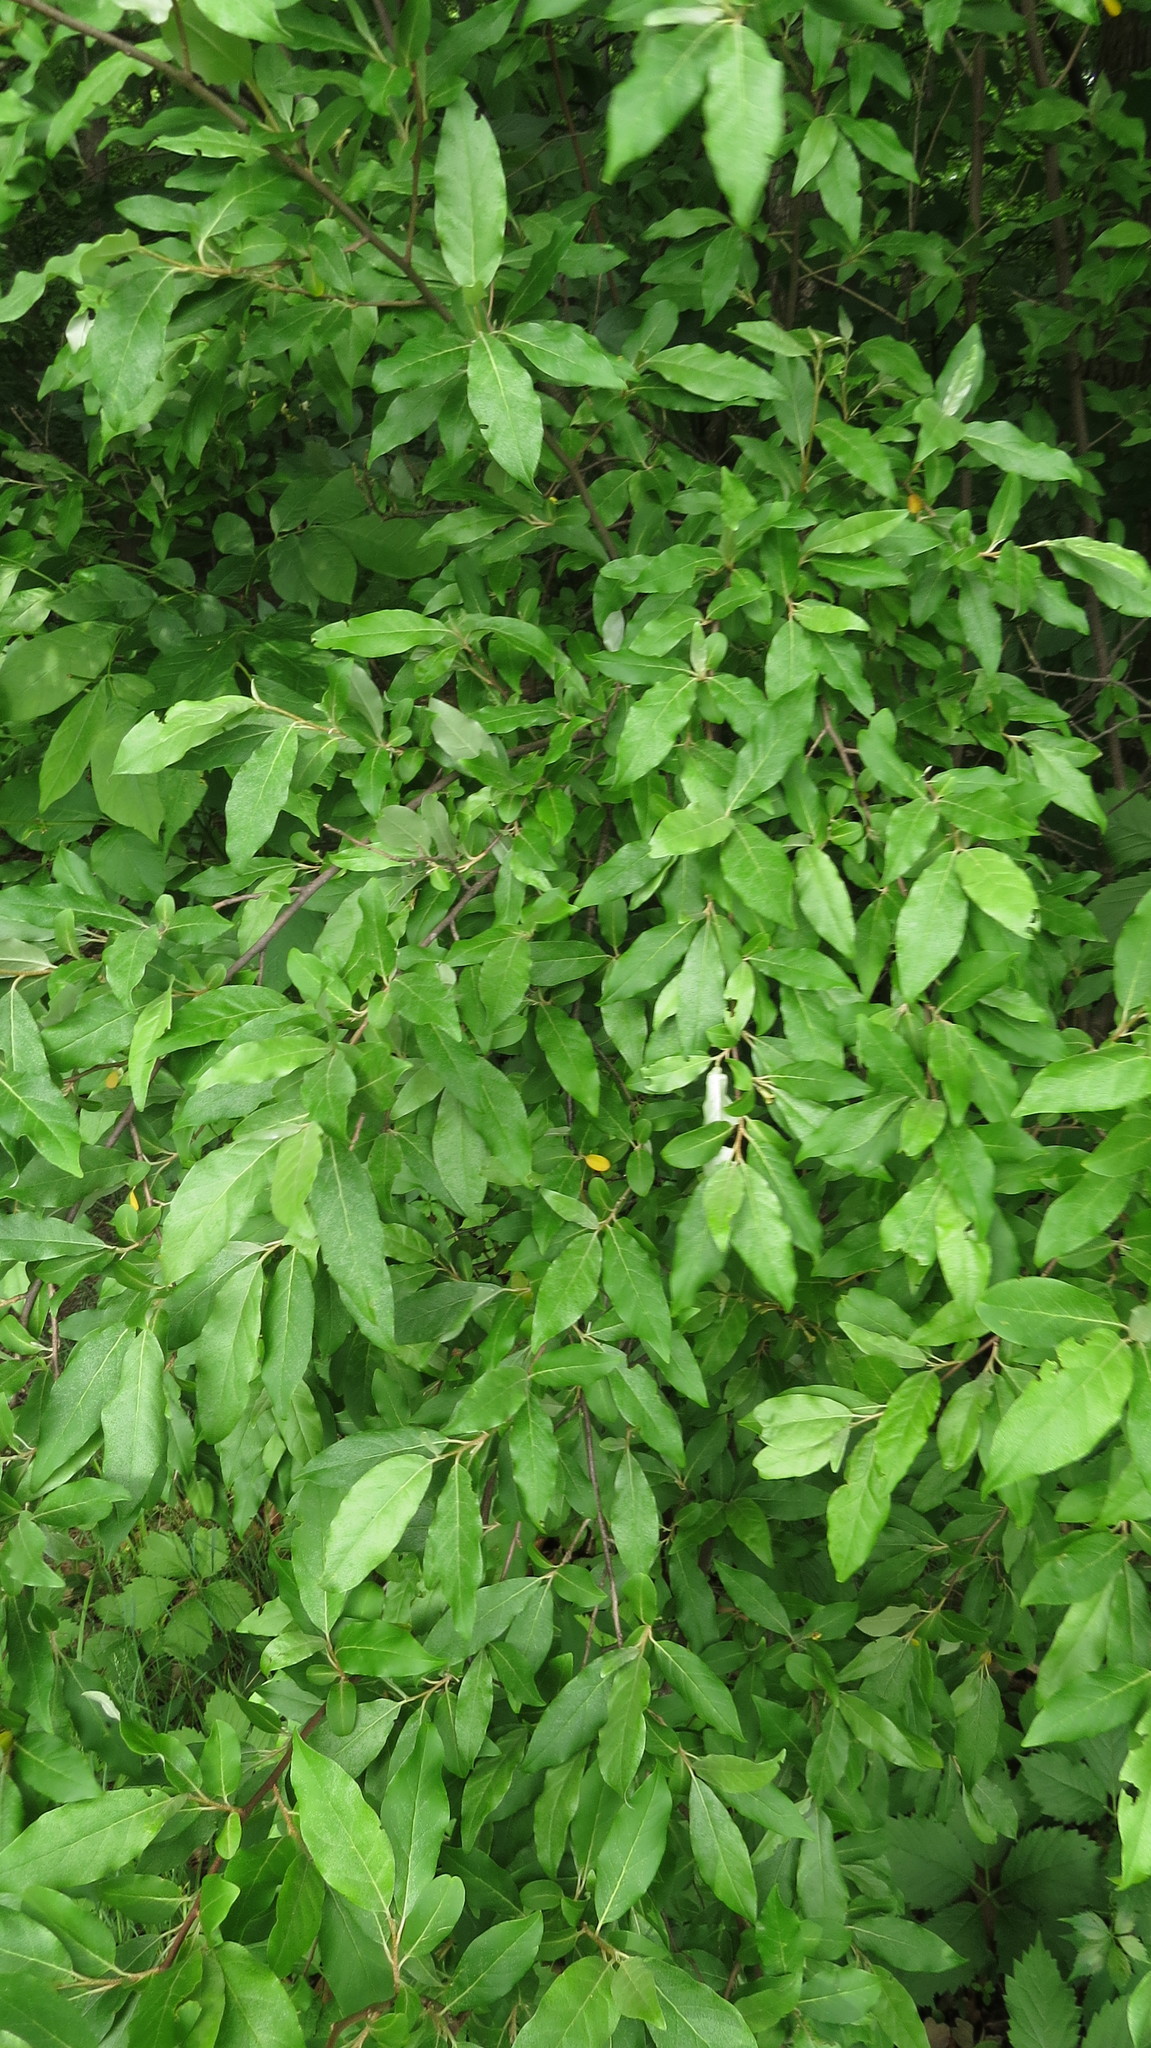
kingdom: Plantae
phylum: Tracheophyta
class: Magnoliopsida
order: Rosales
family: Elaeagnaceae
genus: Elaeagnus
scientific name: Elaeagnus umbellata
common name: Autumn olive
